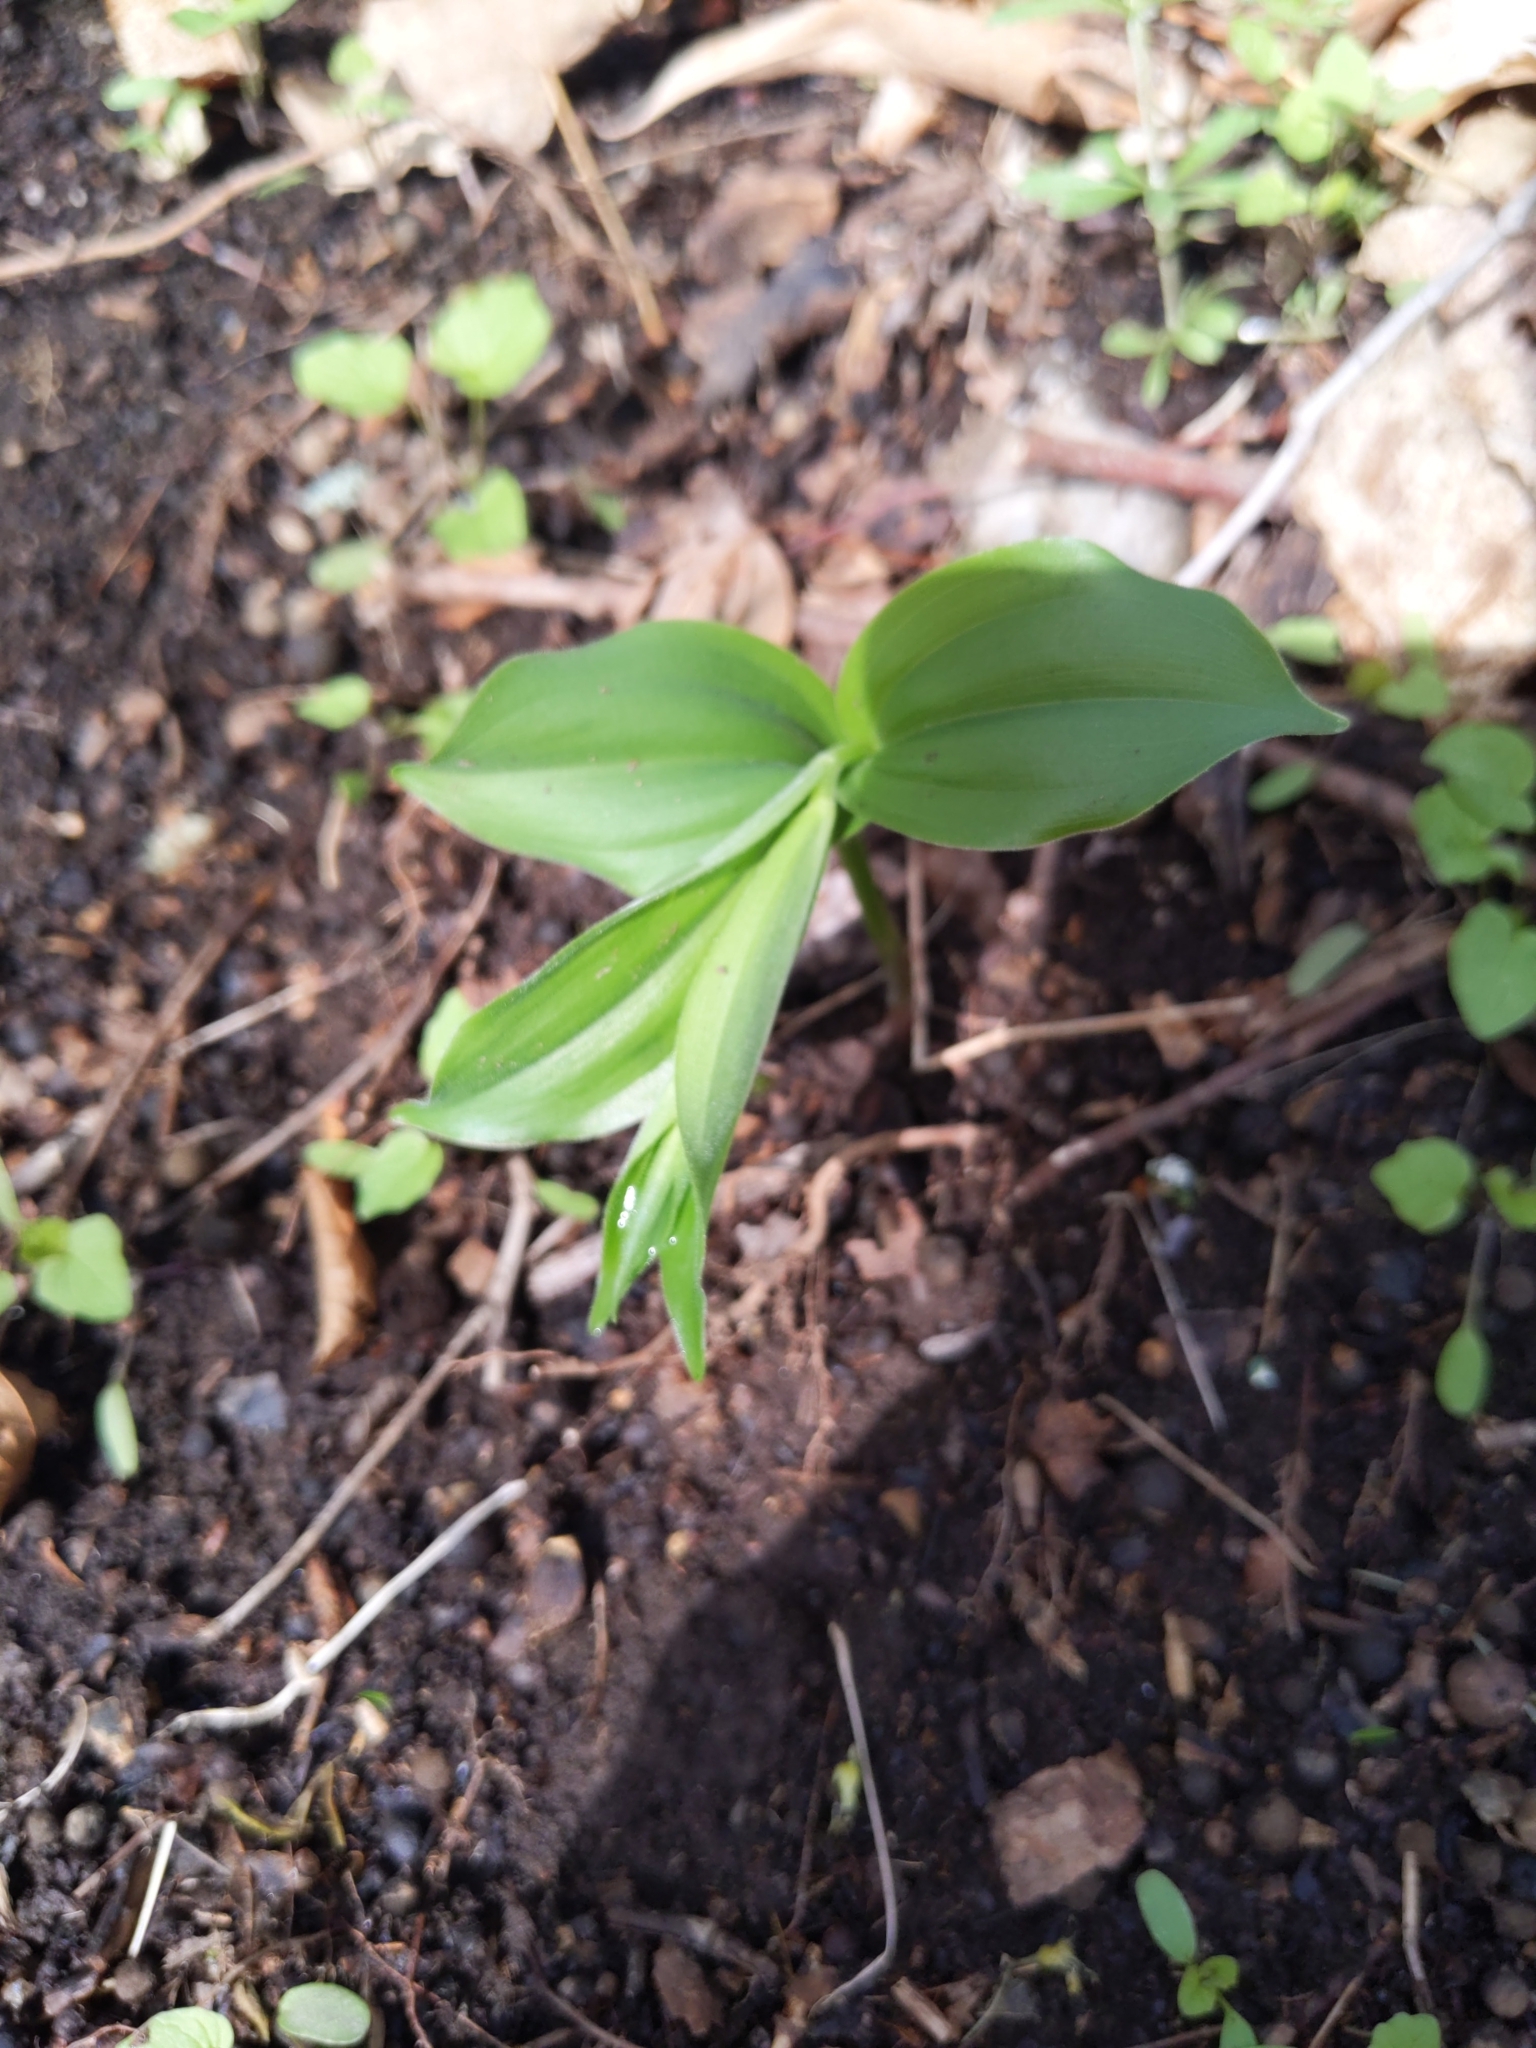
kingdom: Plantae
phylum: Tracheophyta
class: Liliopsida
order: Asparagales
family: Asparagaceae
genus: Maianthemum
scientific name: Maianthemum racemosum
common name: False spikenard
